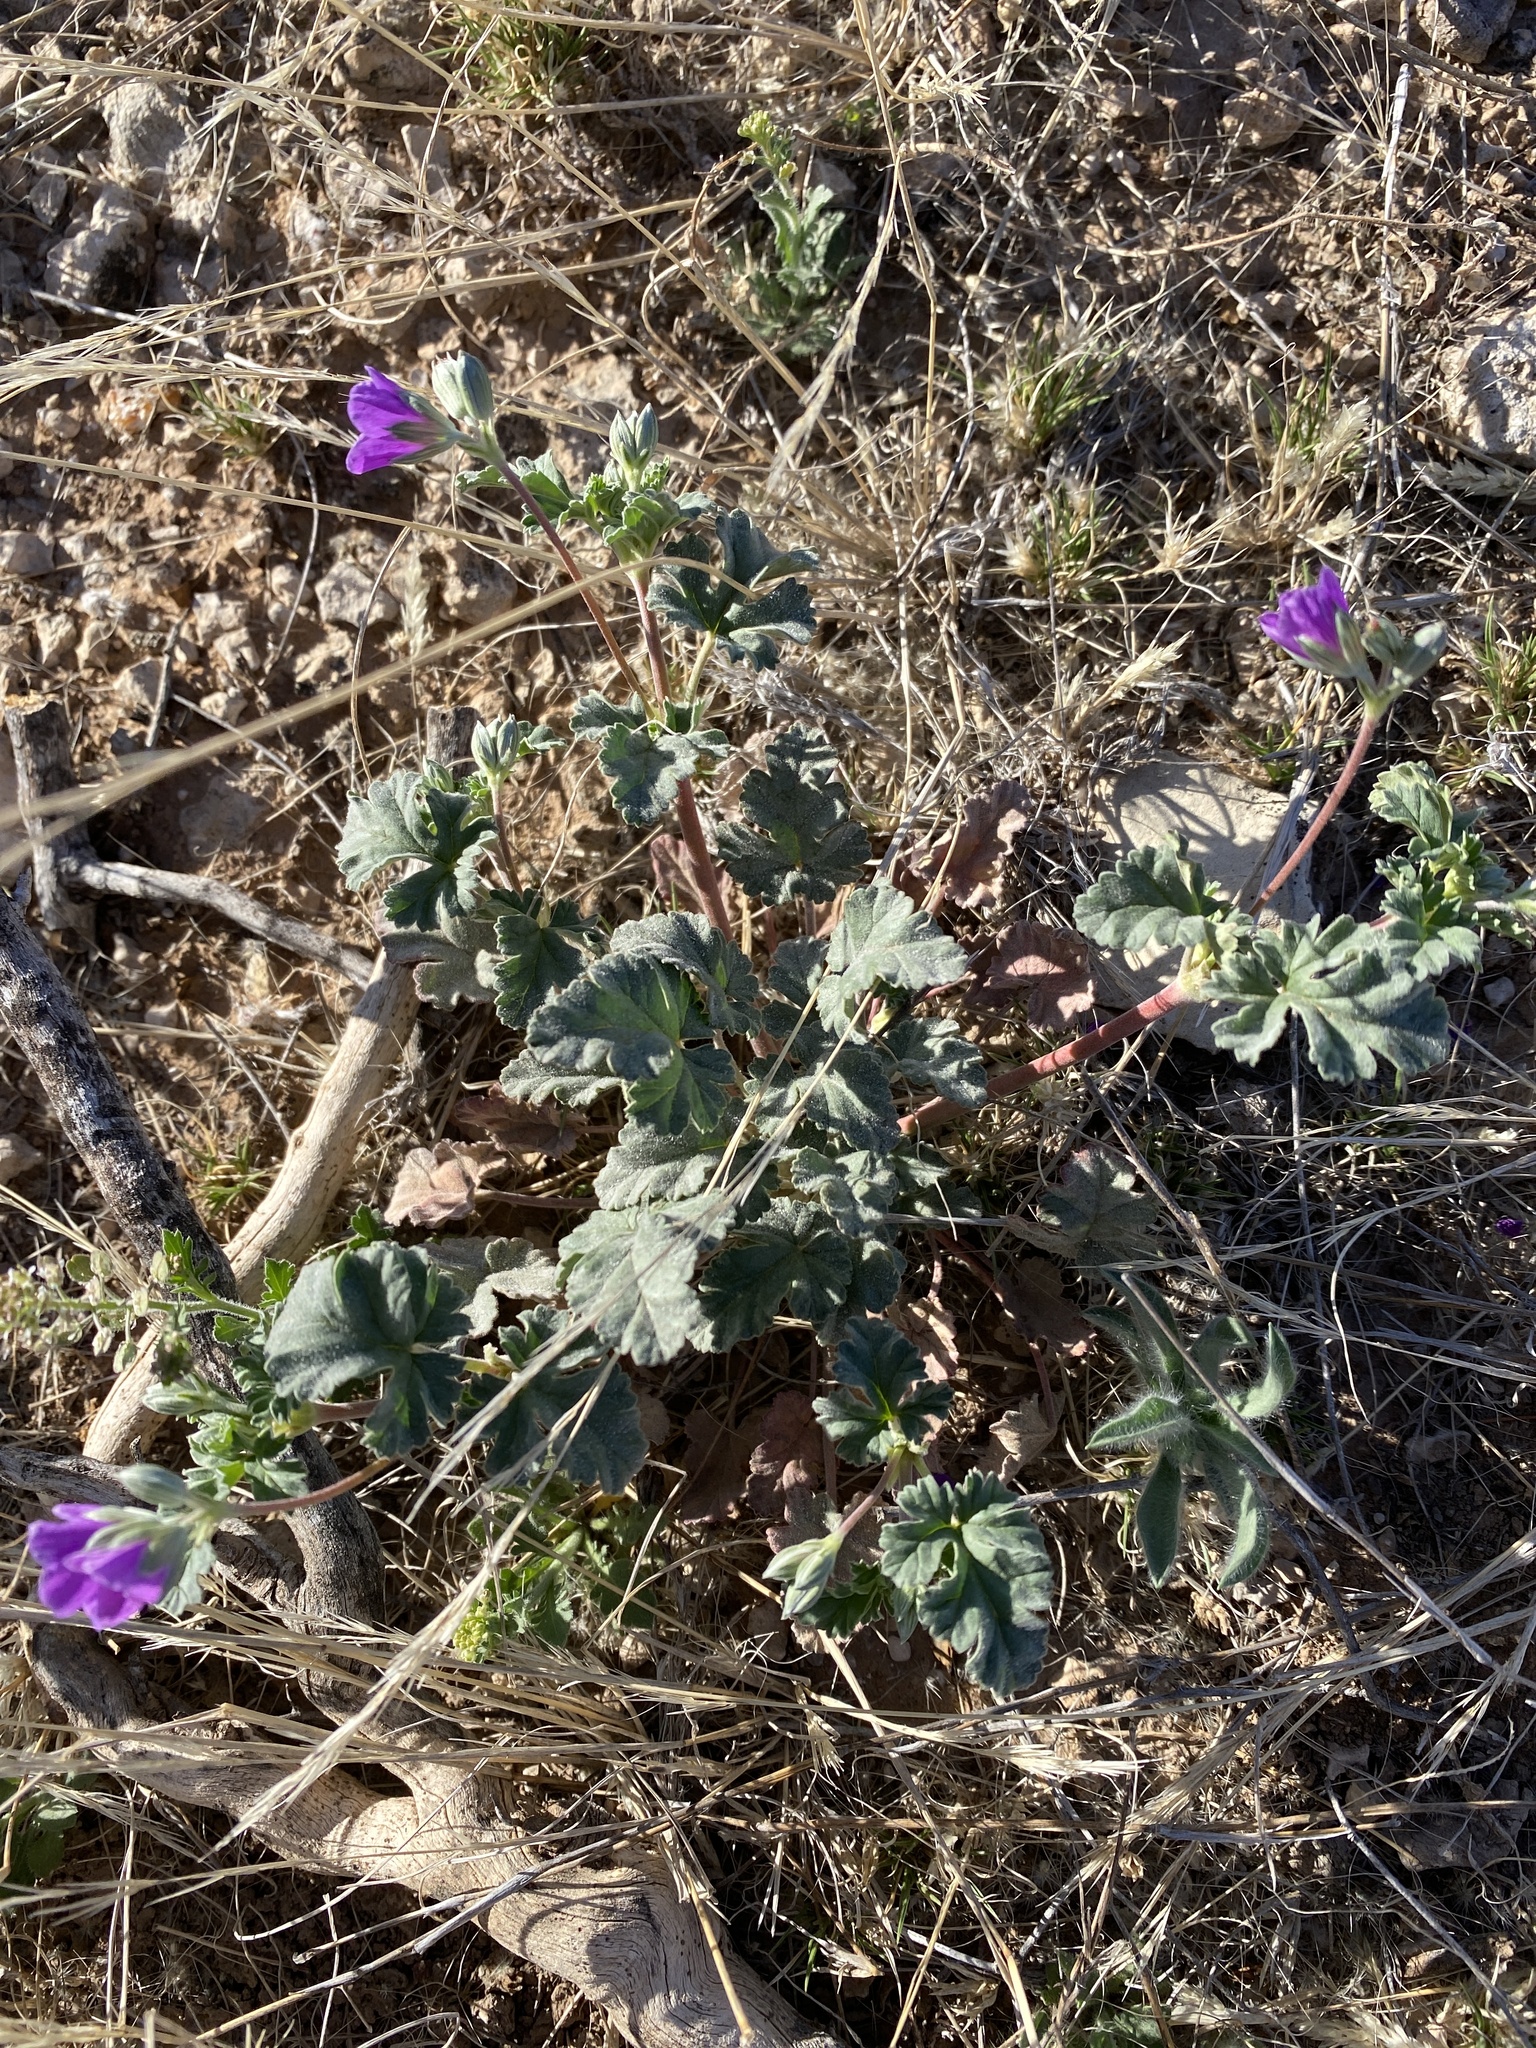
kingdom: Plantae
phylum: Tracheophyta
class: Magnoliopsida
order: Geraniales
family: Geraniaceae
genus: Erodium
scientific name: Erodium texanum
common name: Texas stork's-bill
